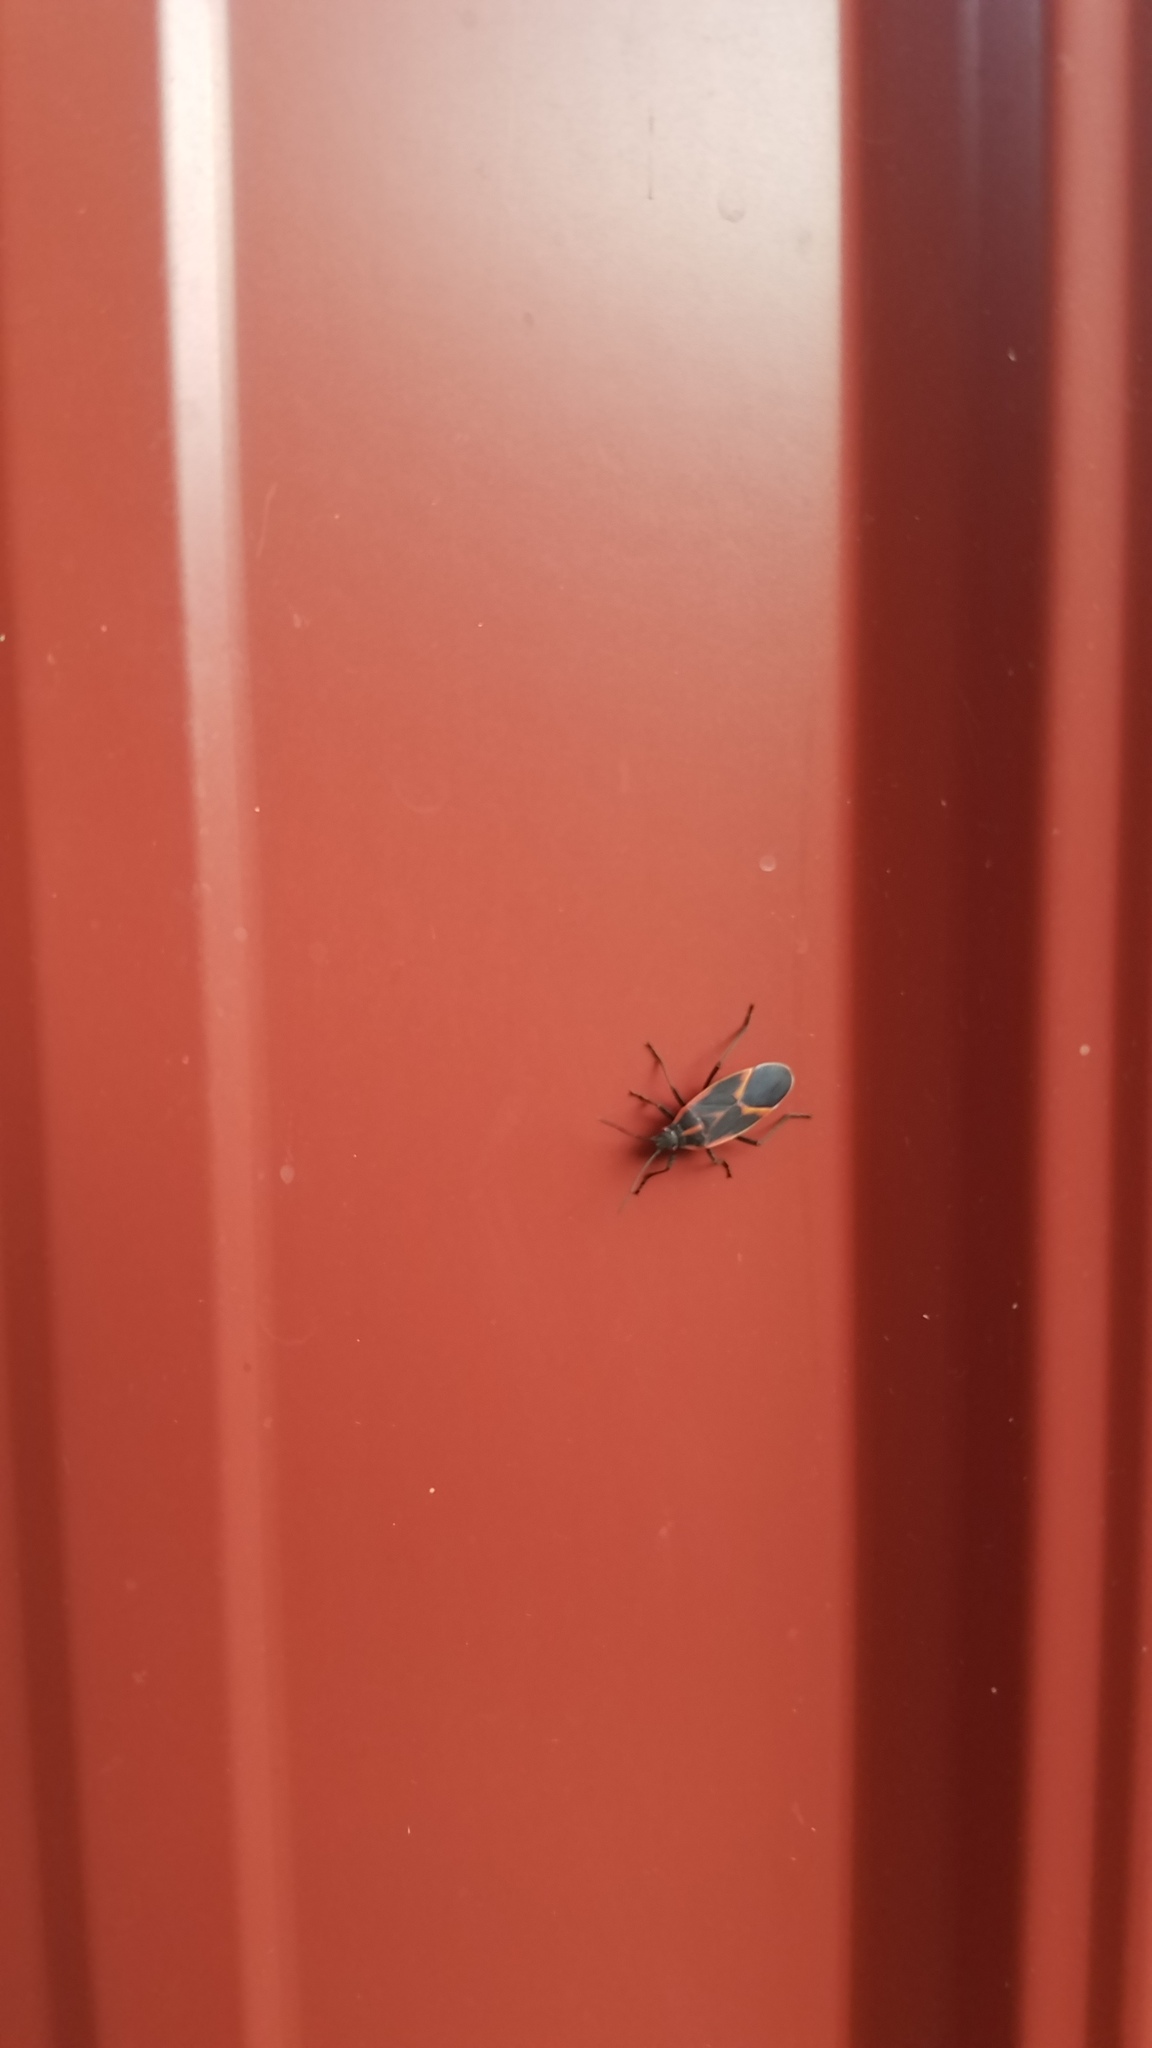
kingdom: Animalia
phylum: Arthropoda
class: Insecta
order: Hemiptera
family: Rhopalidae
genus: Boisea
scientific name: Boisea trivittata
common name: Boxelder bug
